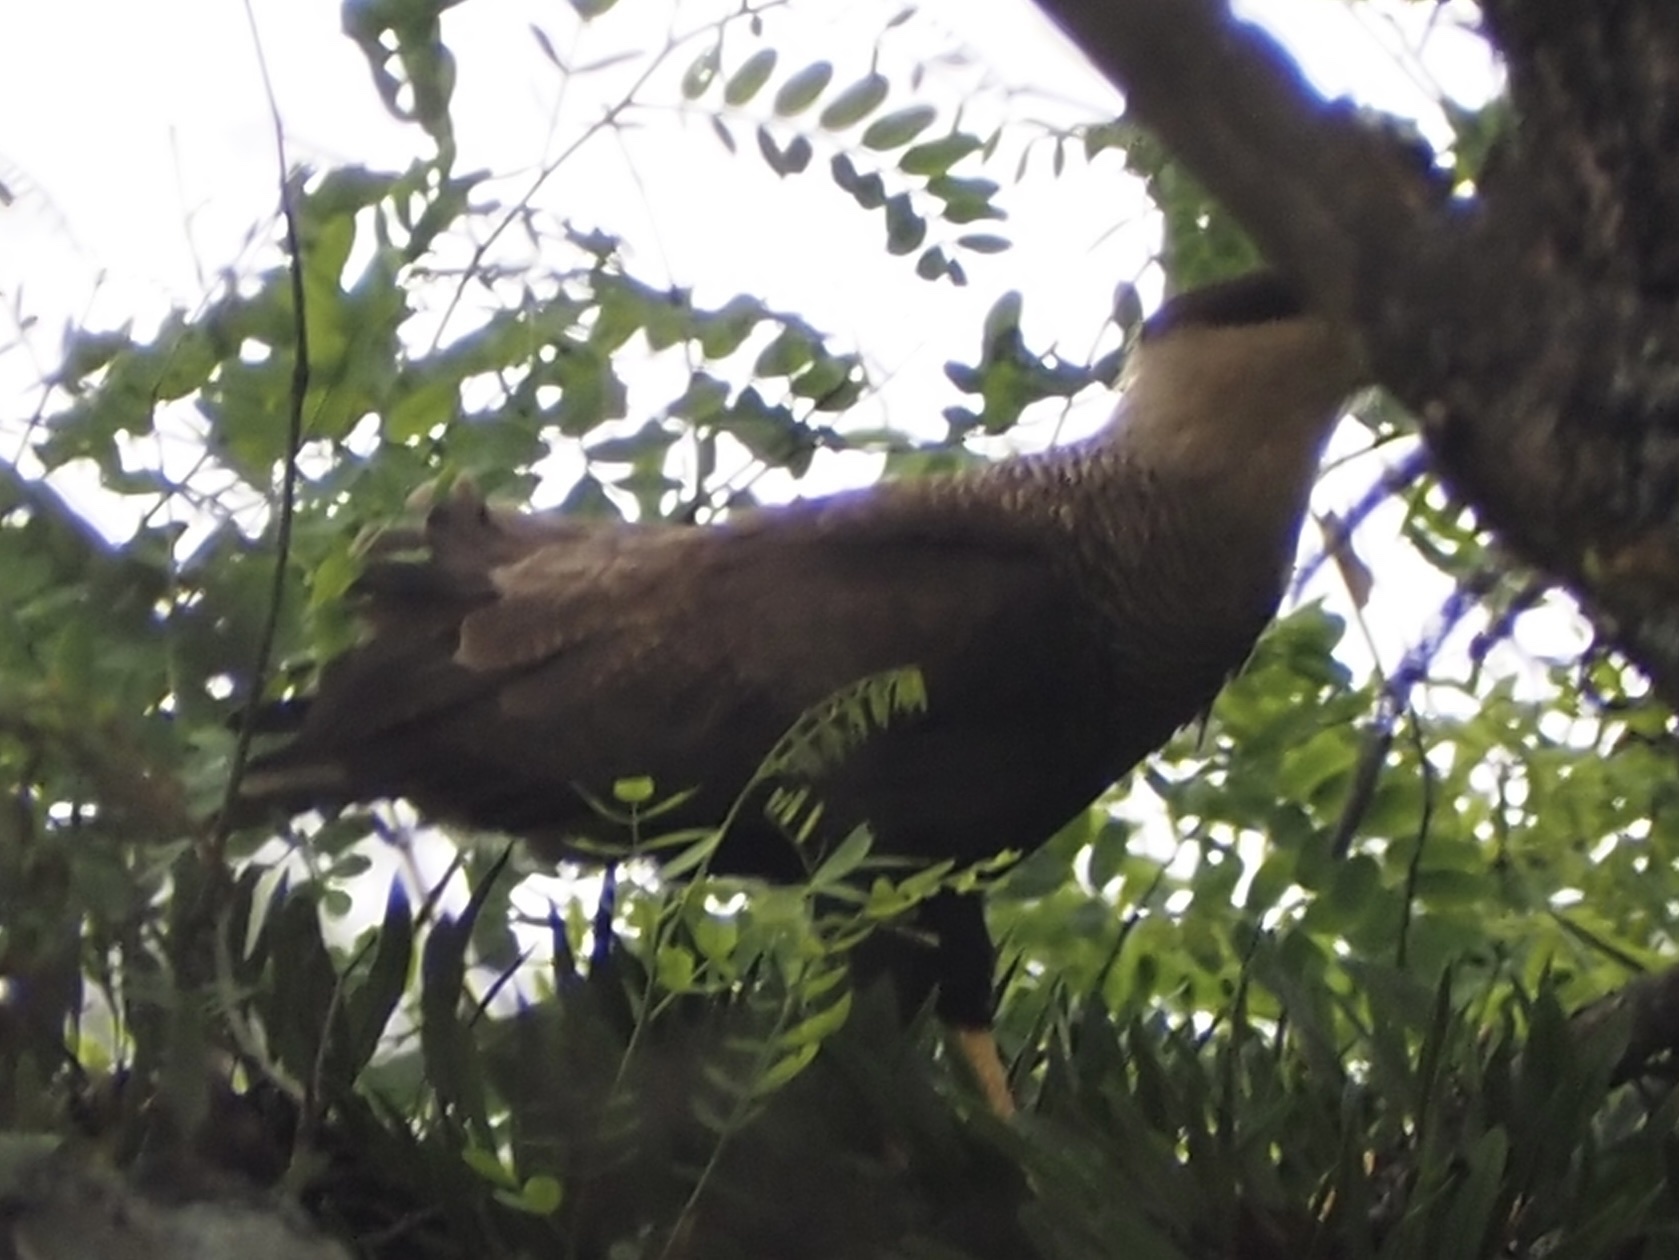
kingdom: Animalia
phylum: Chordata
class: Aves
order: Falconiformes
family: Falconidae
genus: Caracara
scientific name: Caracara plancus
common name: Southern caracara
